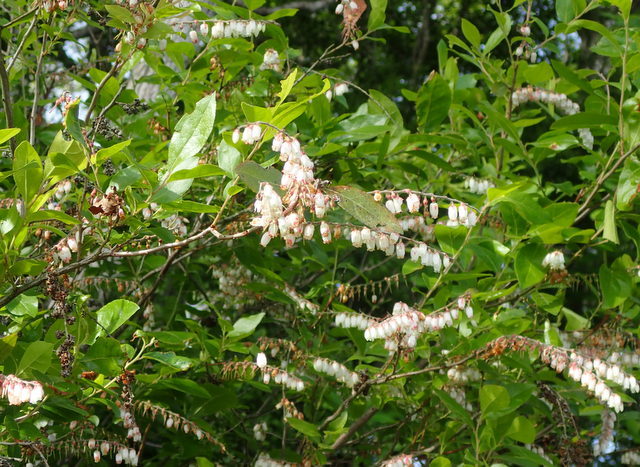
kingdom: Plantae
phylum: Tracheophyta
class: Magnoliopsida
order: Ericales
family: Ericaceae
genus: Eubotrys
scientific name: Eubotrys racemosa
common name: Fetterbush
